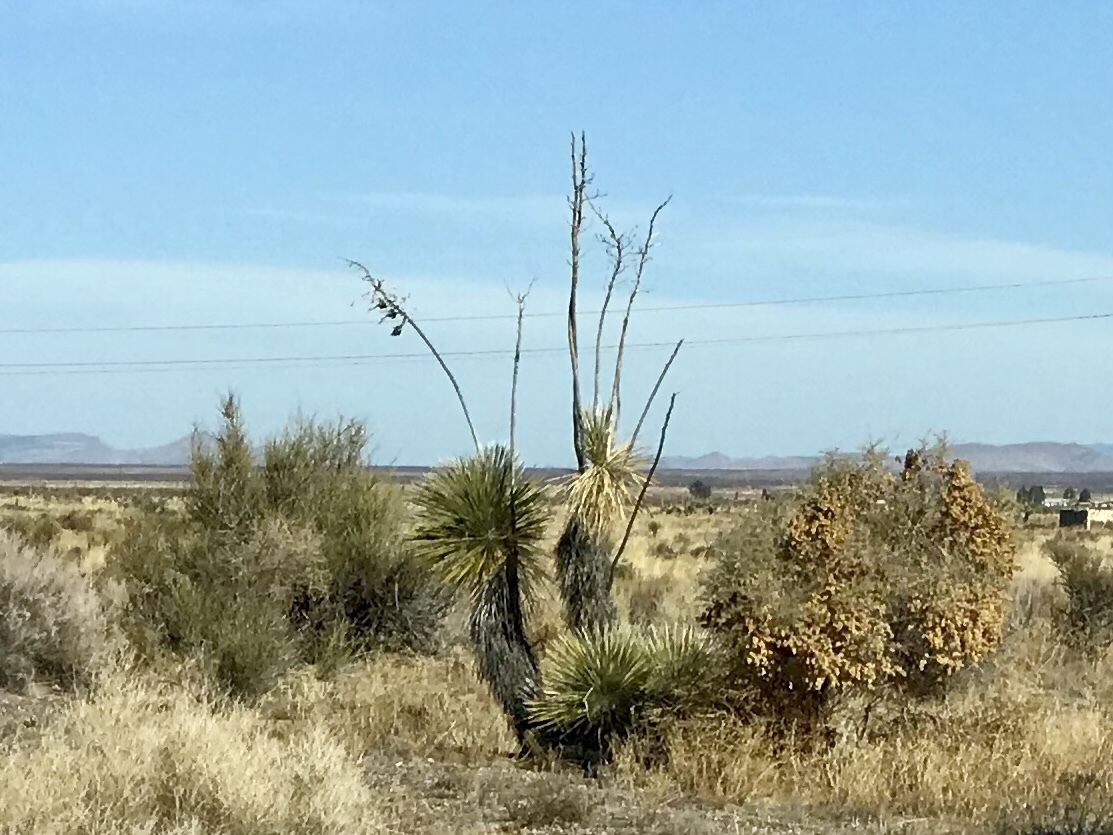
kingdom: Plantae
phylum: Tracheophyta
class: Liliopsida
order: Asparagales
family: Asparagaceae
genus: Yucca
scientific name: Yucca elata
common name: Palmella
